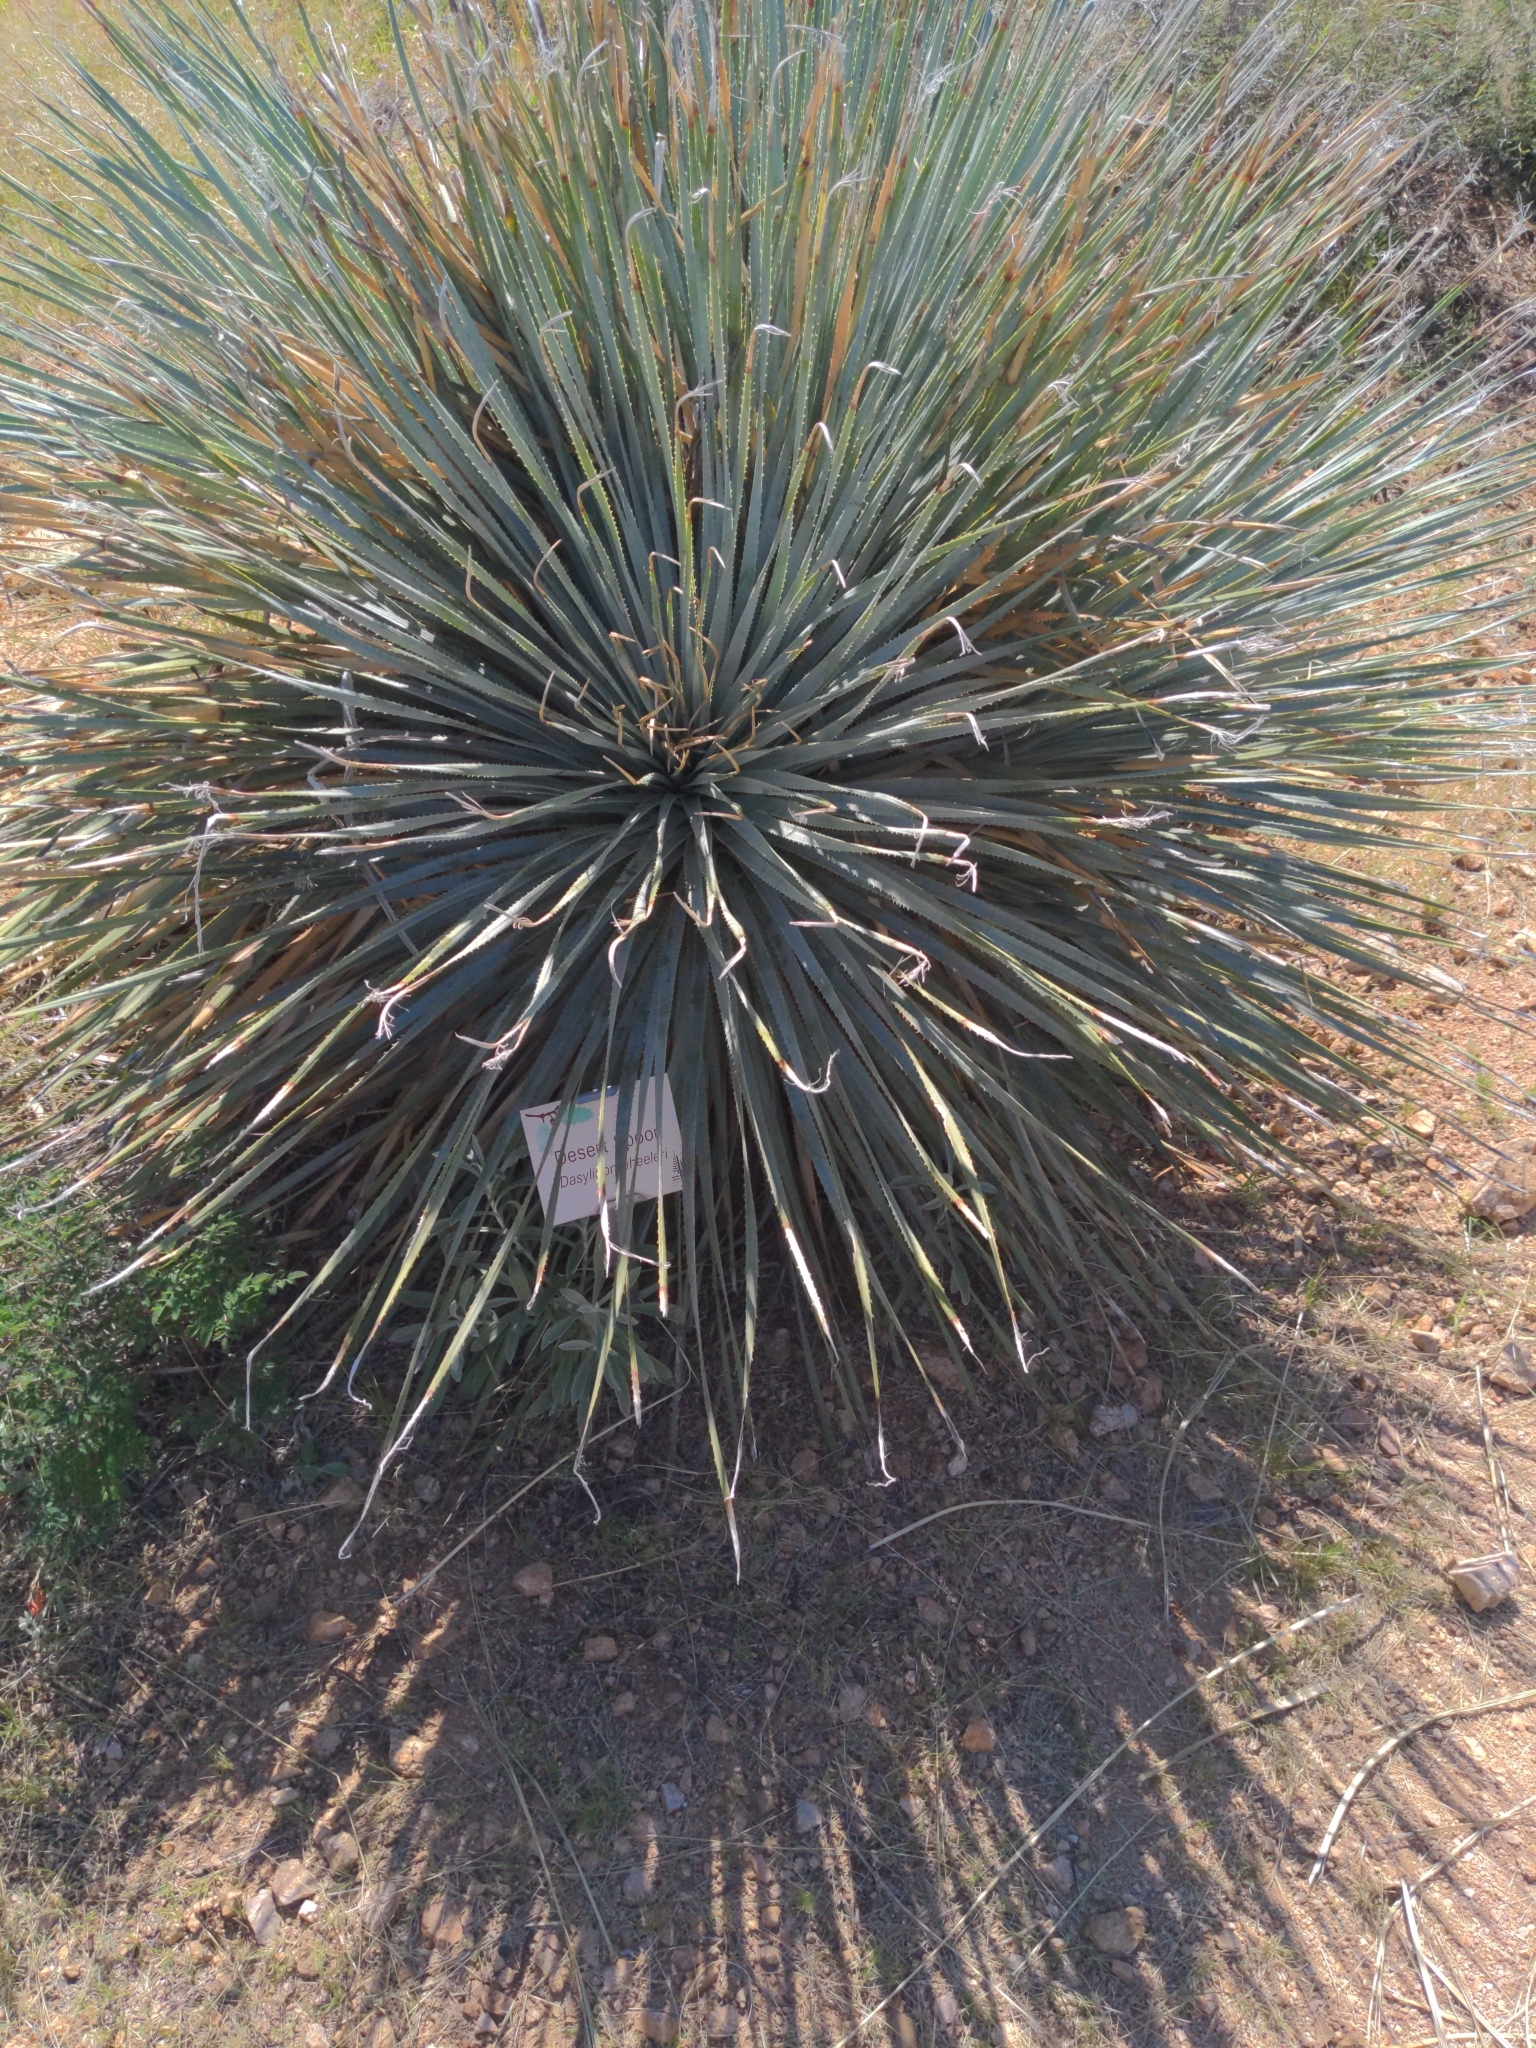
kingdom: Plantae
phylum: Tracheophyta
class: Liliopsida
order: Asparagales
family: Asparagaceae
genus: Dasylirion
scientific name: Dasylirion wheeleri
